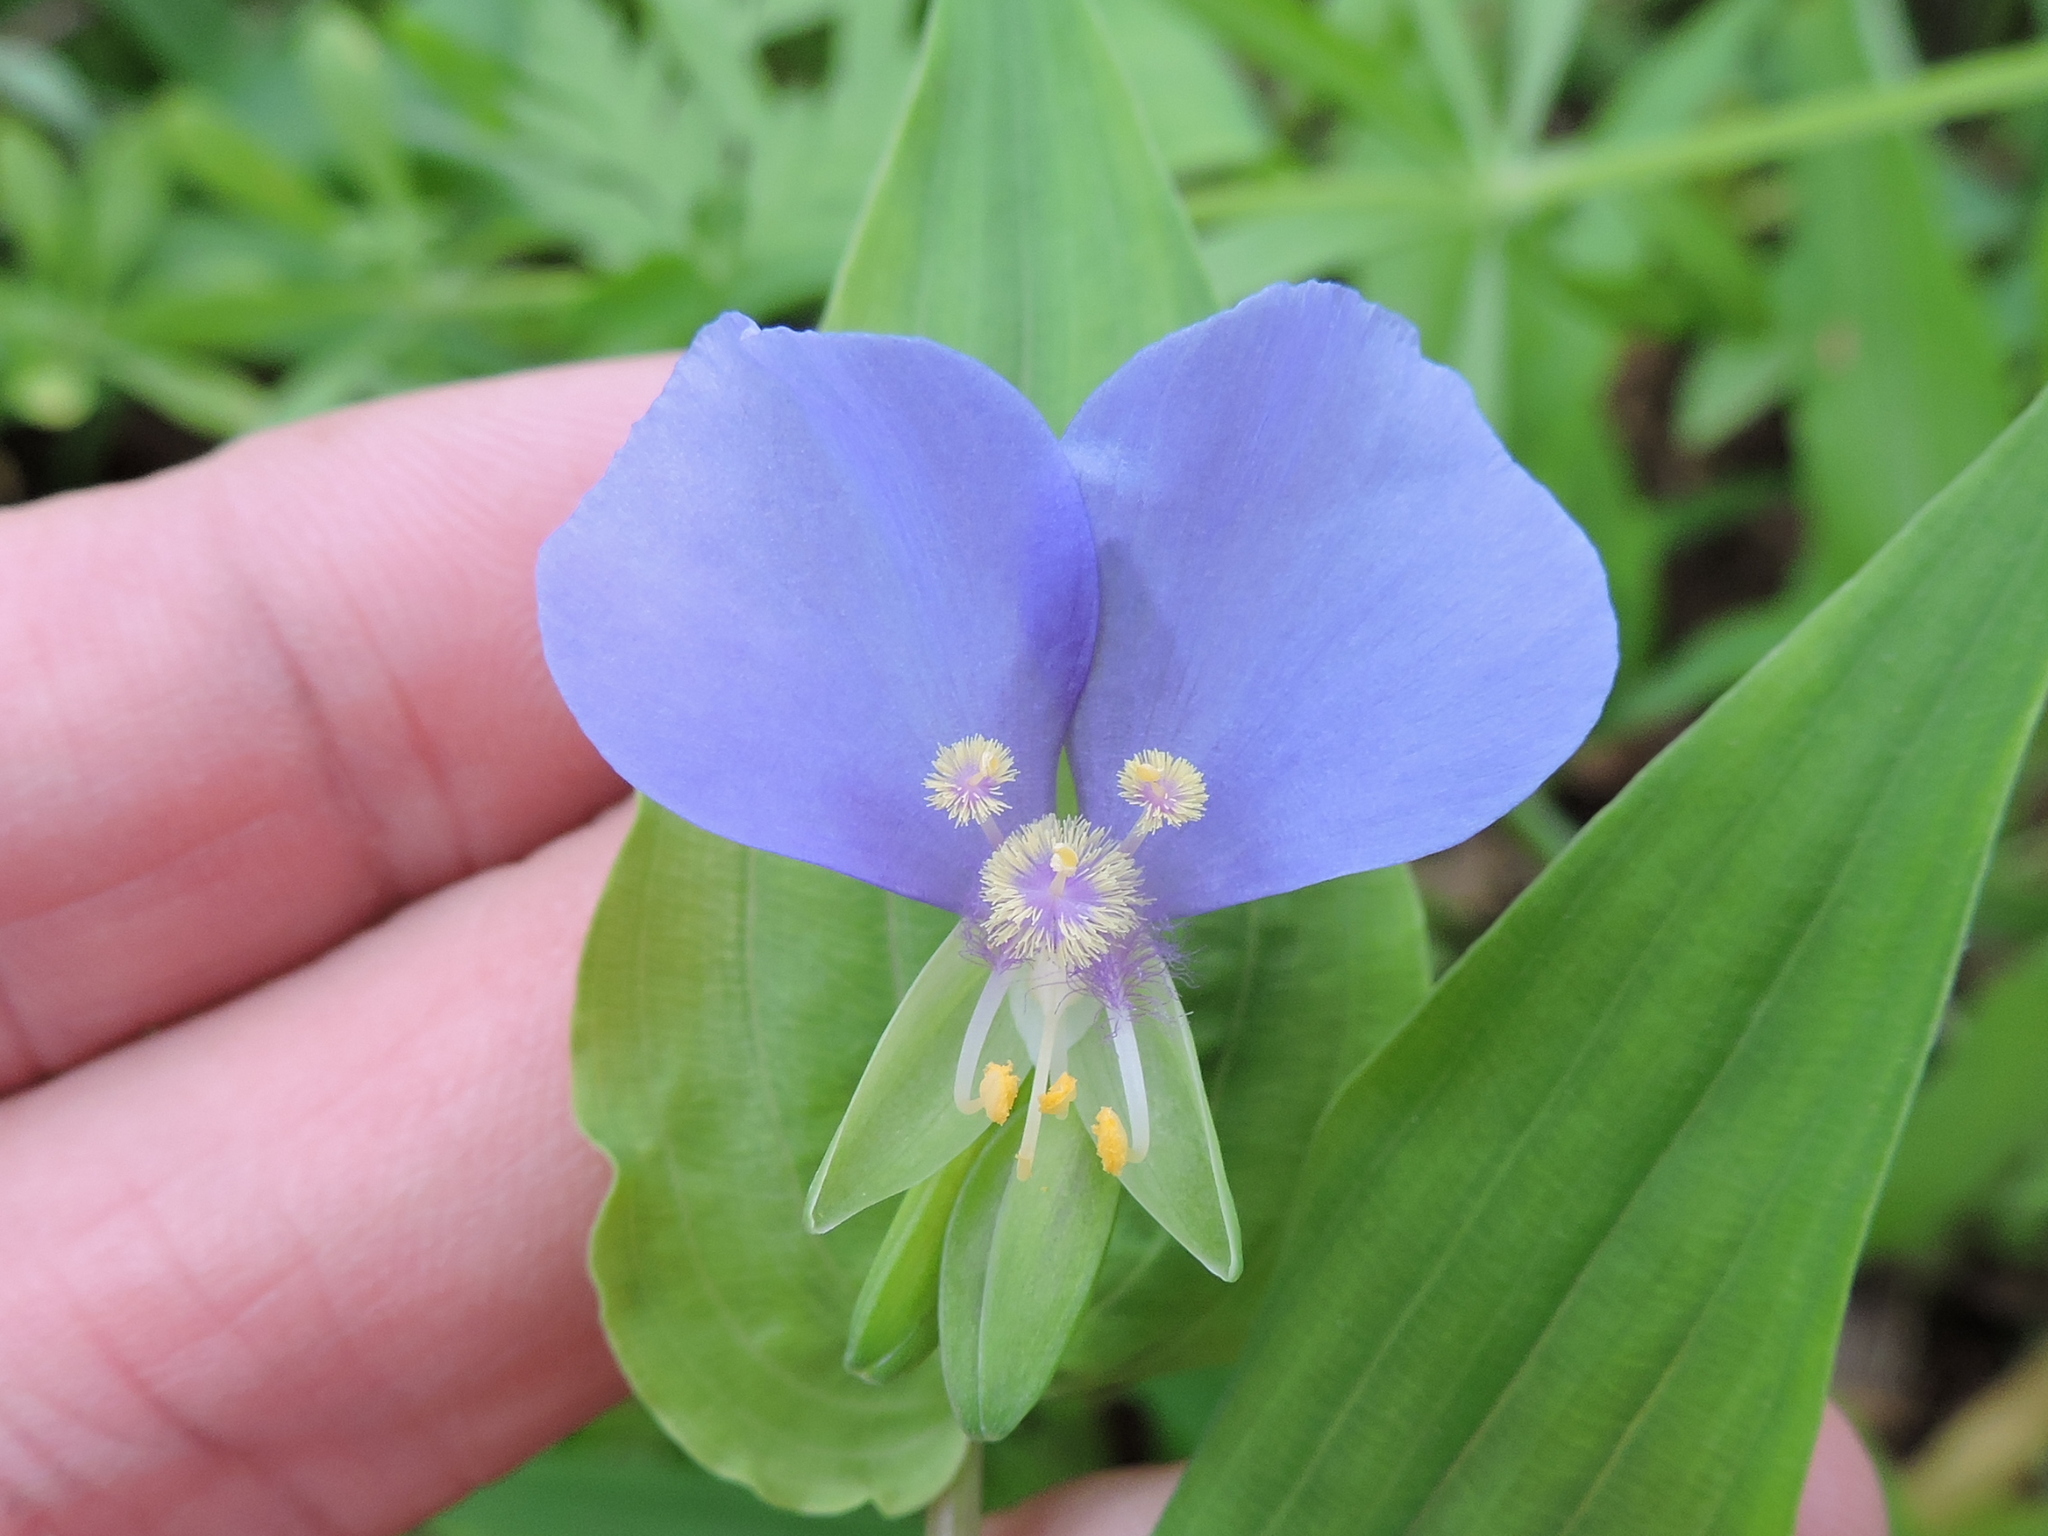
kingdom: Plantae
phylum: Tracheophyta
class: Liliopsida
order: Commelinales
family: Commelinaceae
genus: Tinantia
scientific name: Tinantia anomala
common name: False dayflower
